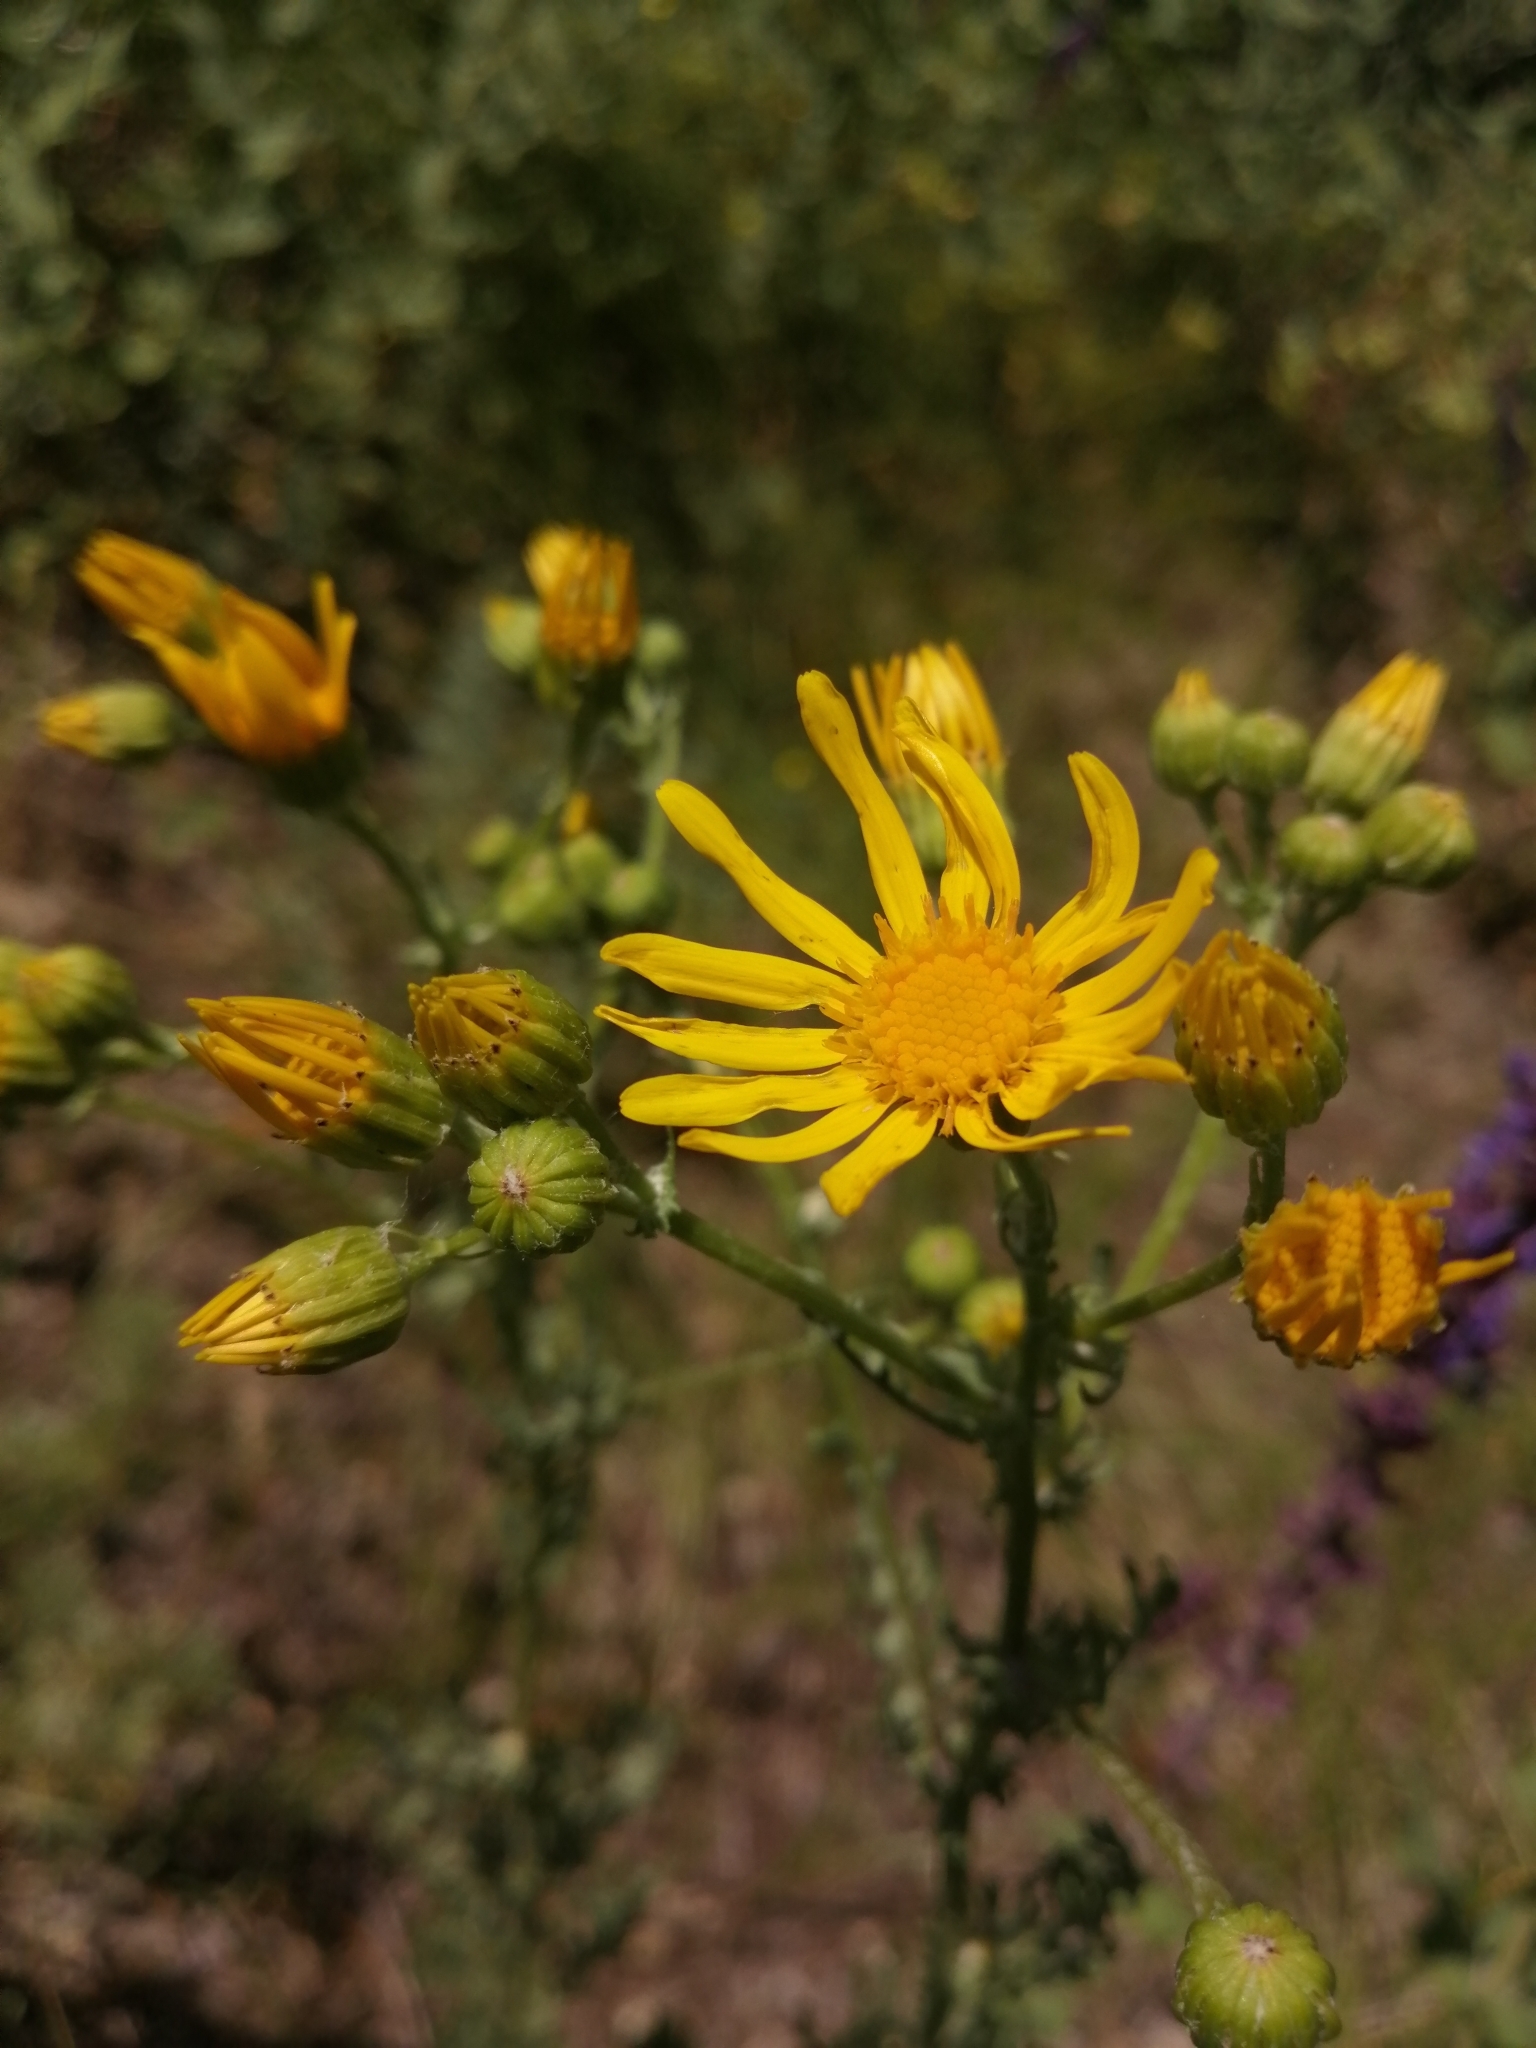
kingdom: Plantae
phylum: Tracheophyta
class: Magnoliopsida
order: Asterales
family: Asteraceae
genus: Jacobaea
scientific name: Jacobaea vulgaris
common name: Stinking willie
